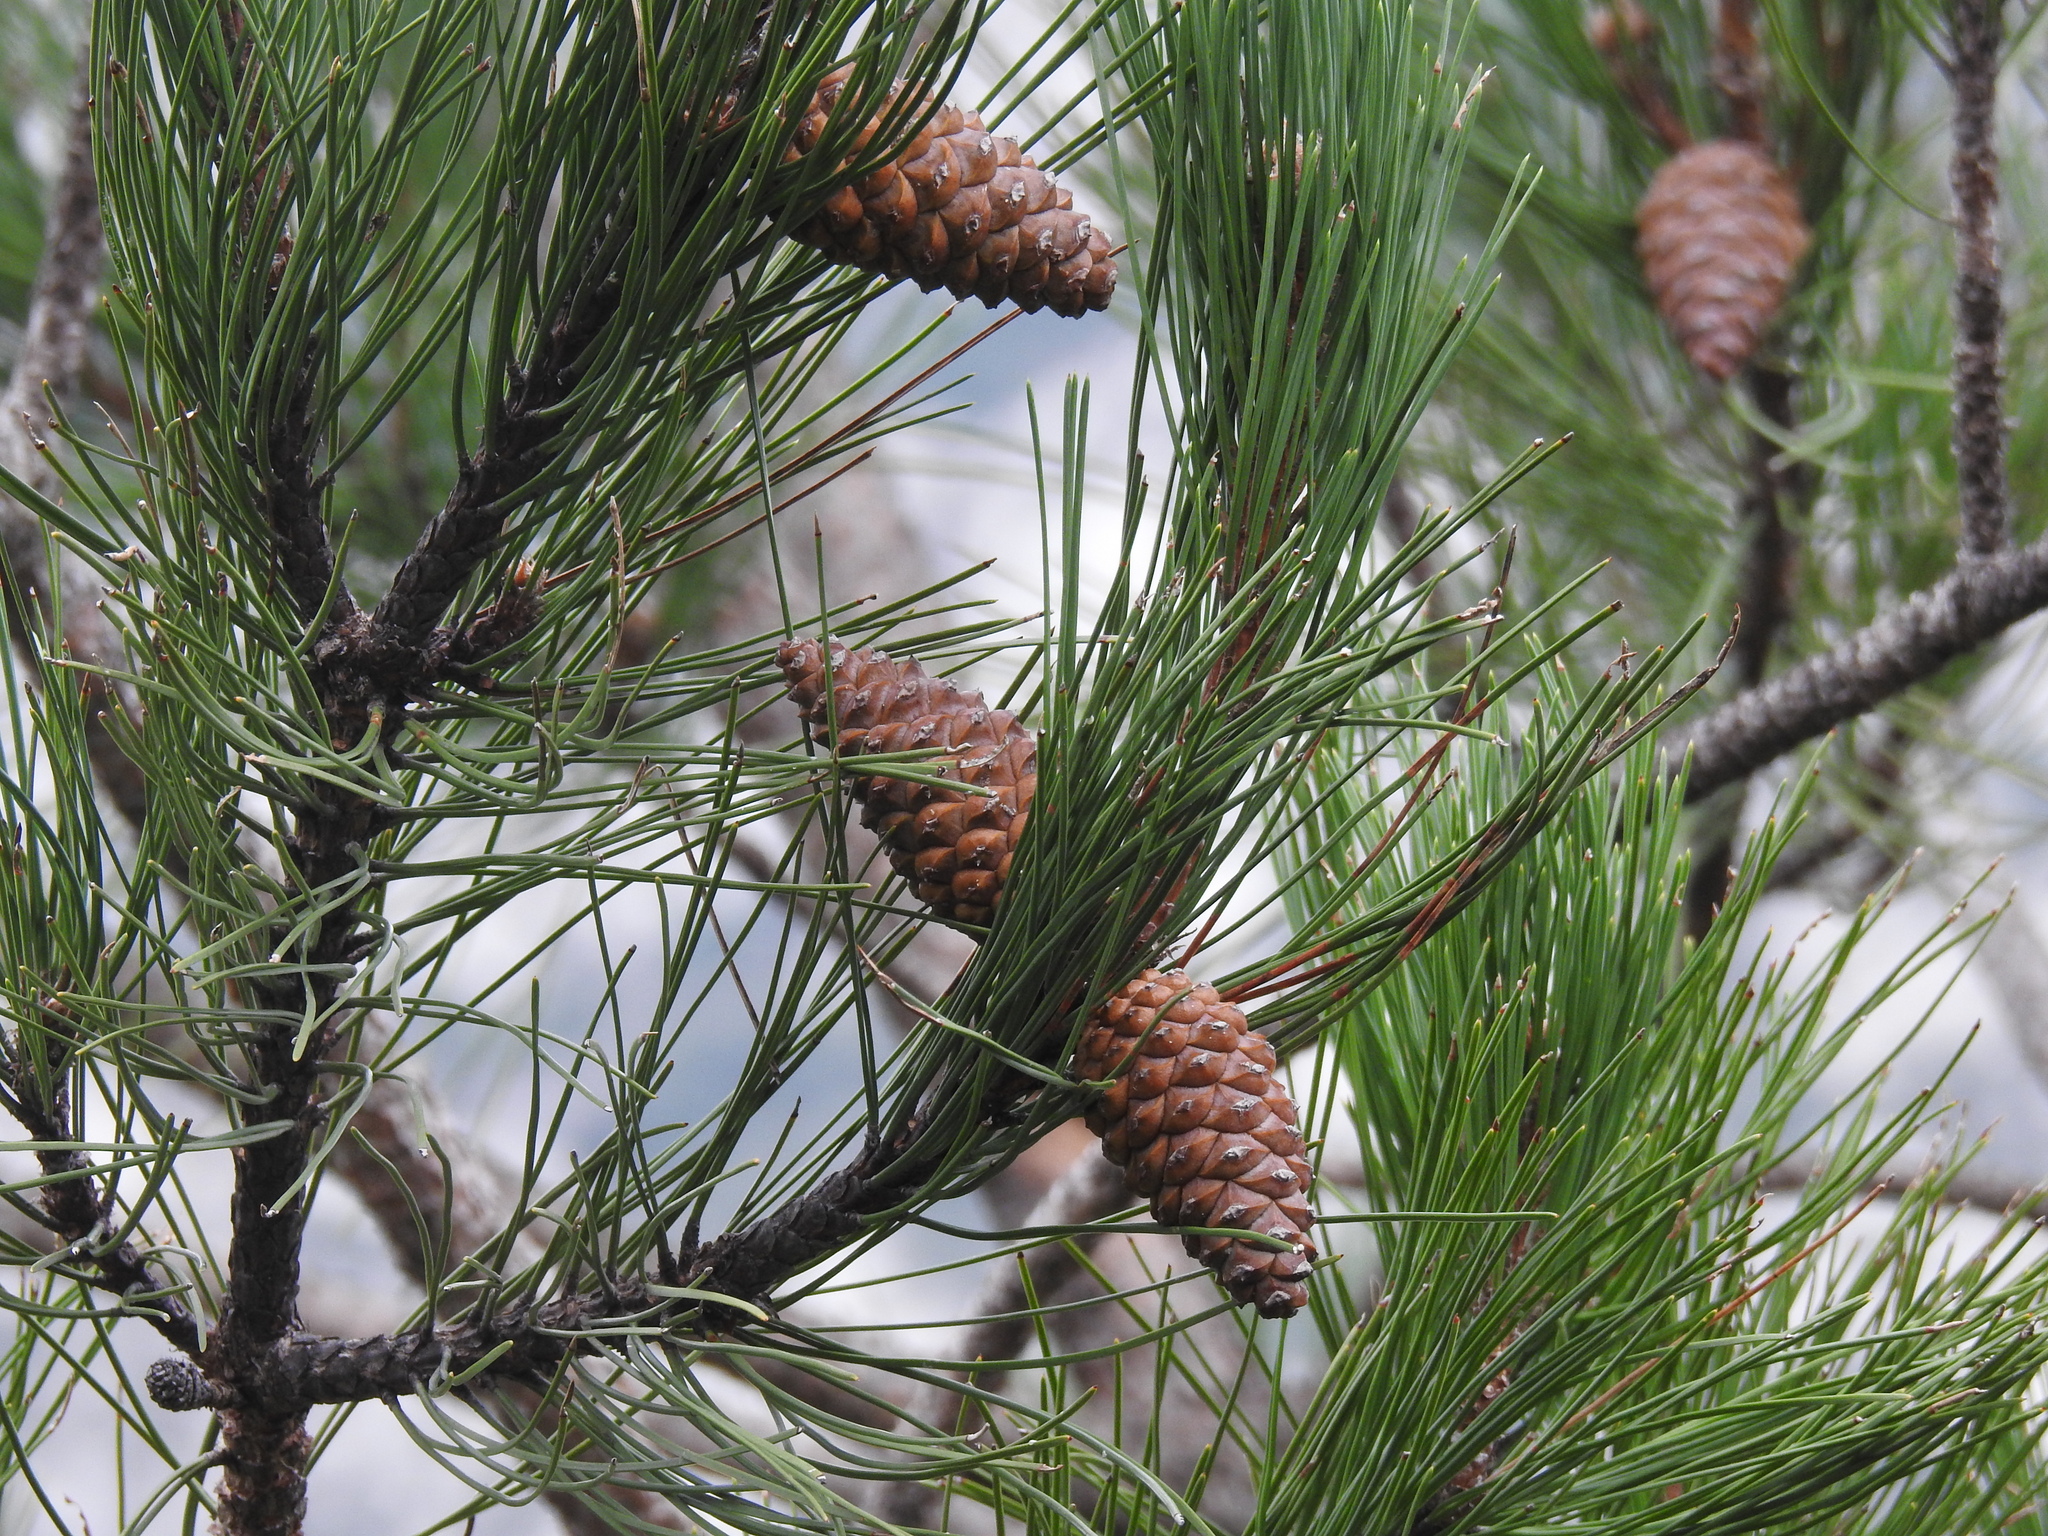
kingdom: Plantae
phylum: Tracheophyta
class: Pinopsida
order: Pinales
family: Pinaceae
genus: Pinus
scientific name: Pinus halepensis
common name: Aleppo pine
